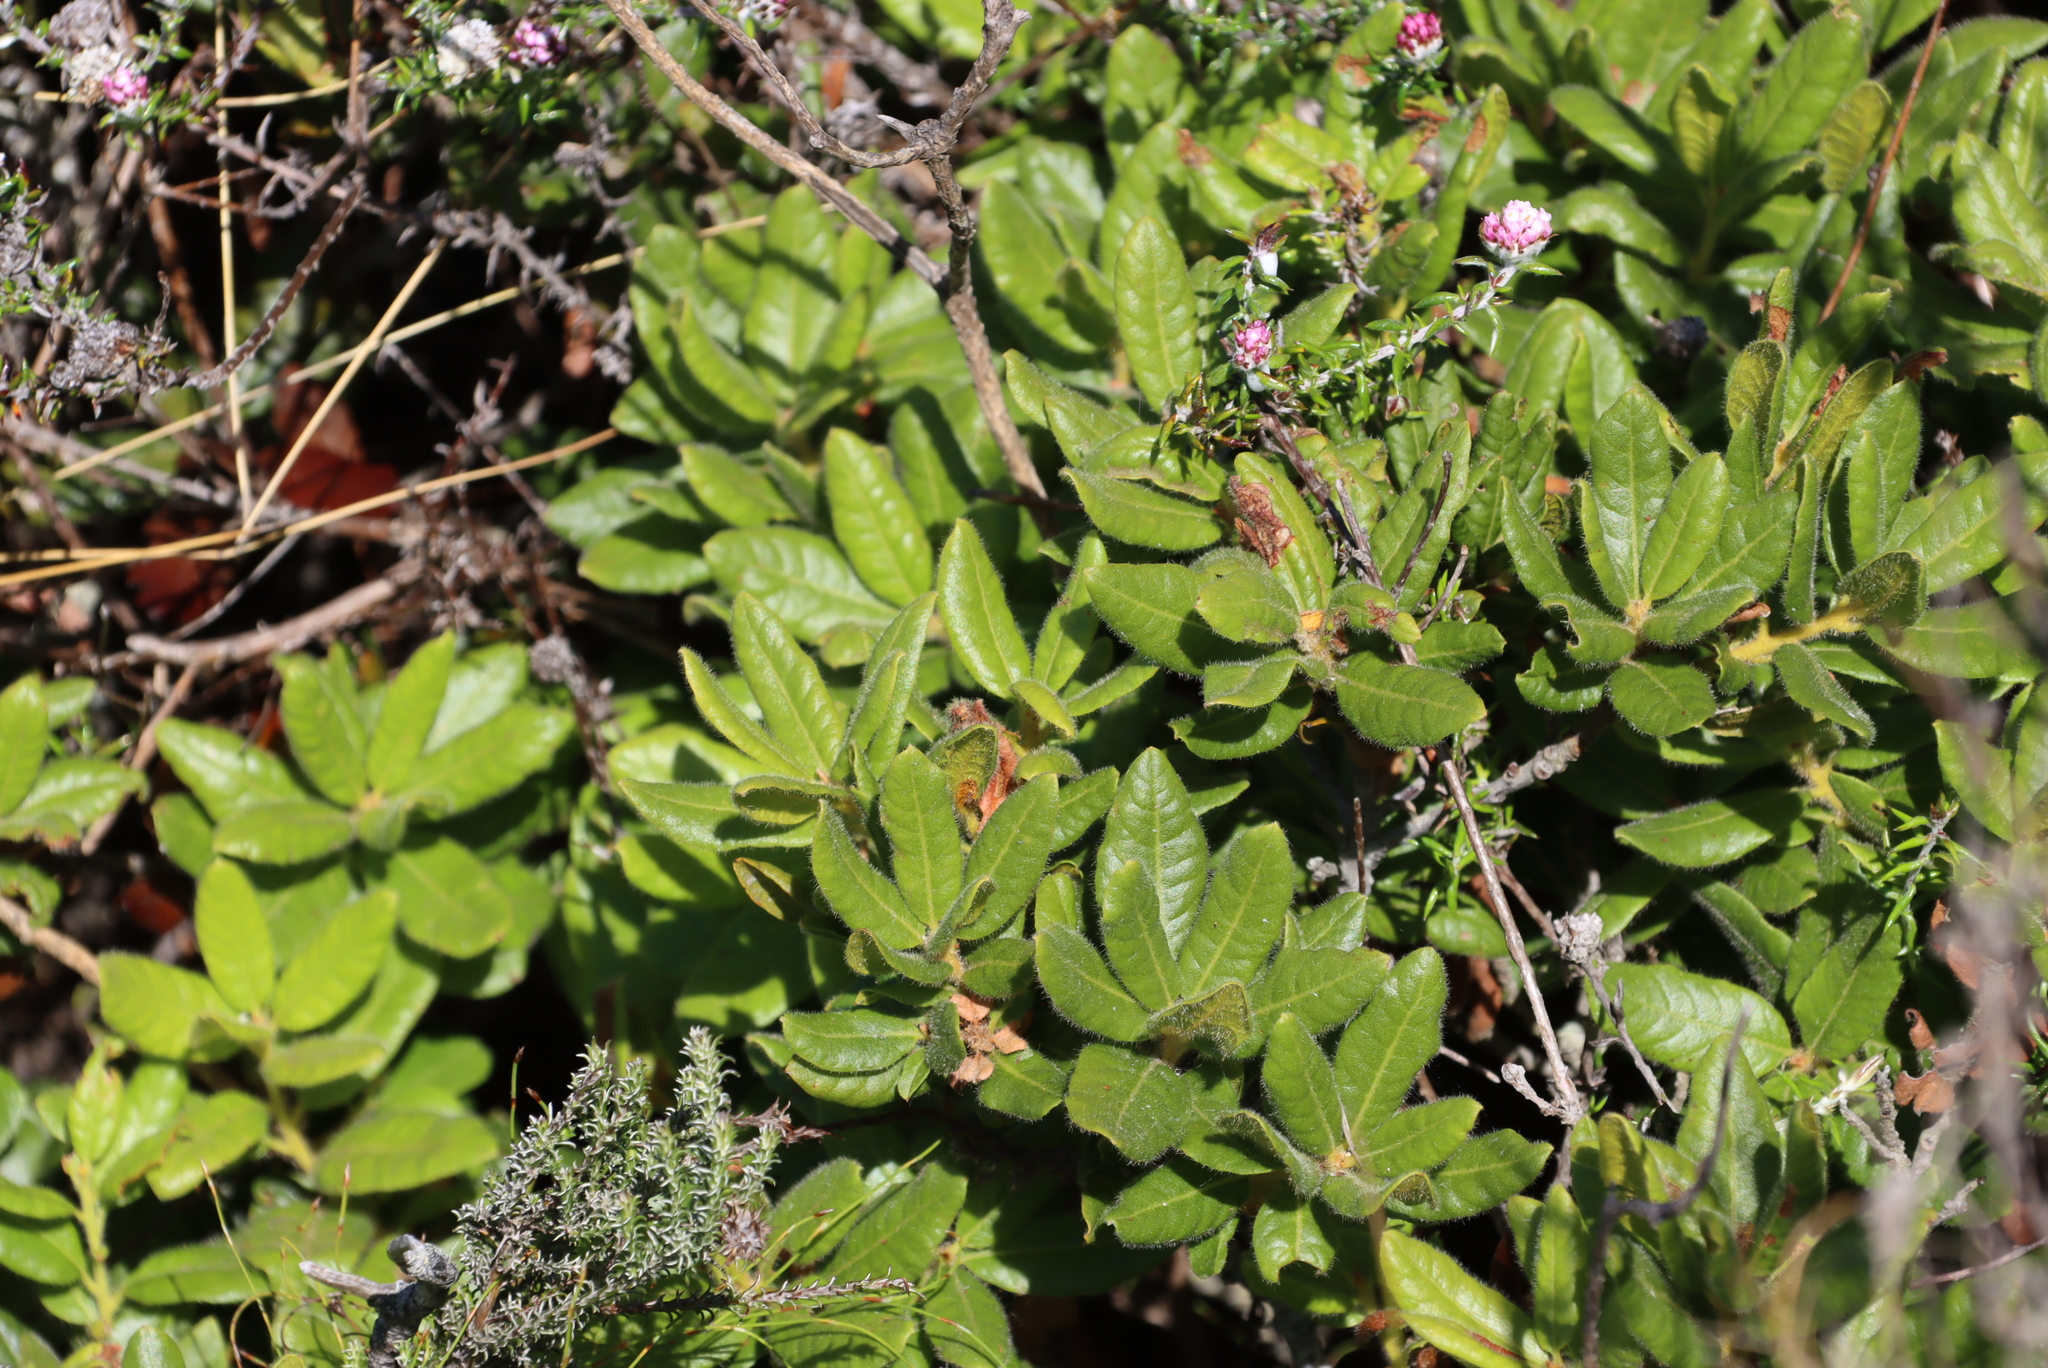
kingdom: Plantae
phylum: Tracheophyta
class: Magnoliopsida
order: Fagales
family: Myricaceae
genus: Morella
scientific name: Morella kraussiana
